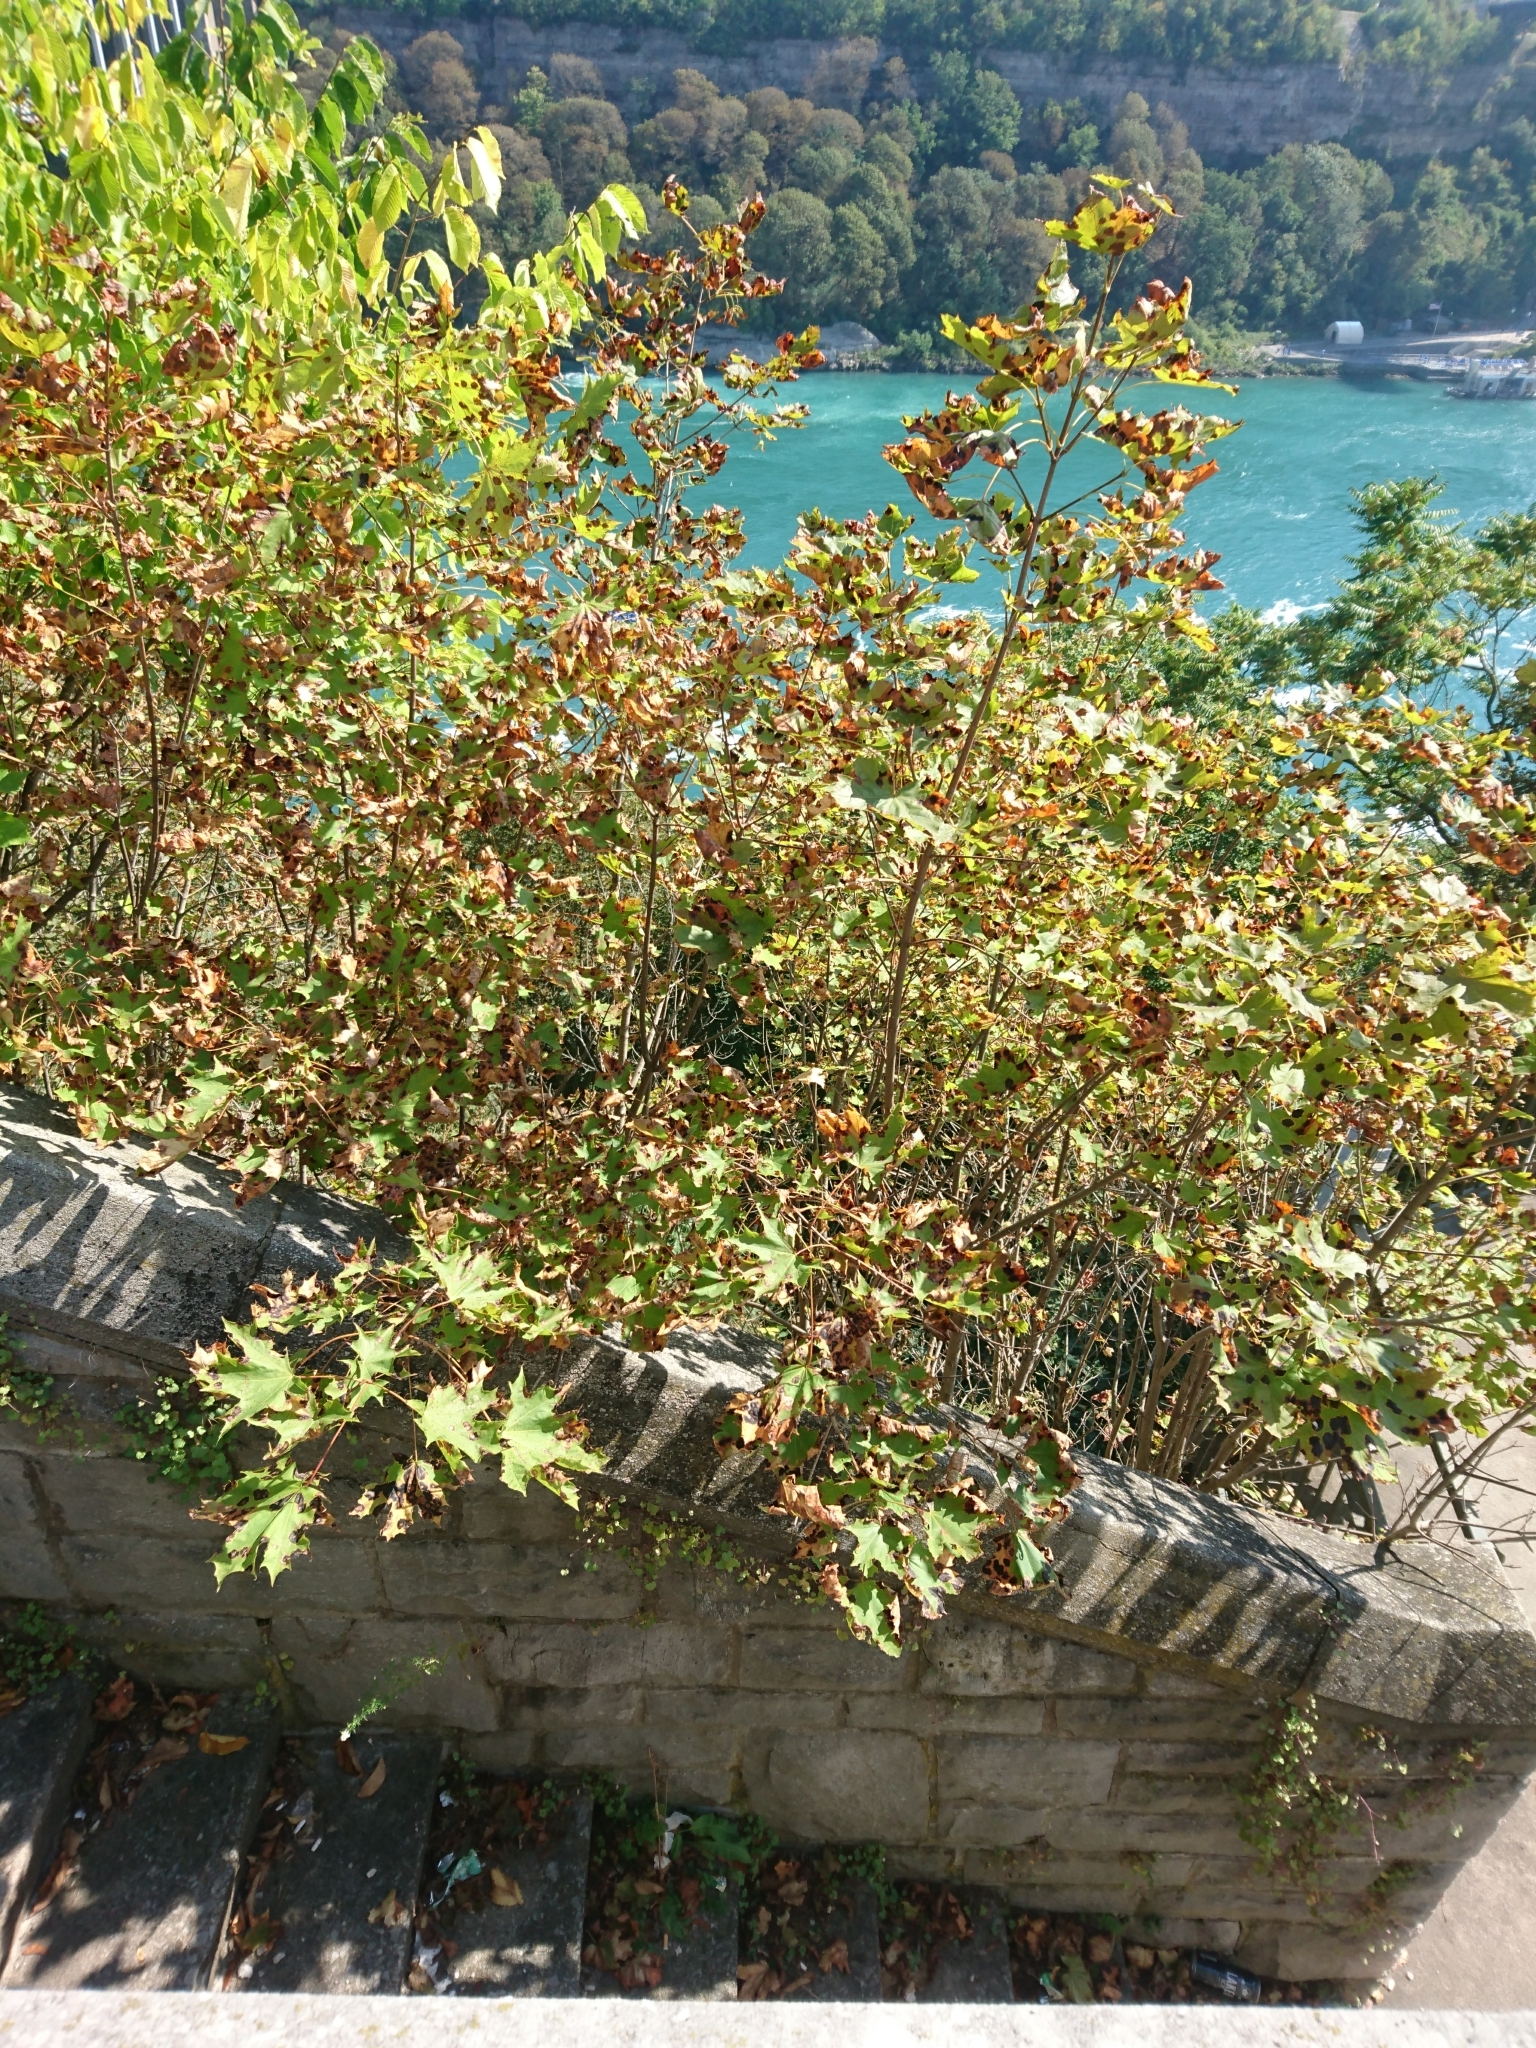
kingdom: Plantae
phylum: Tracheophyta
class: Magnoliopsida
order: Sapindales
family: Sapindaceae
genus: Acer
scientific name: Acer platanoides
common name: Norway maple
